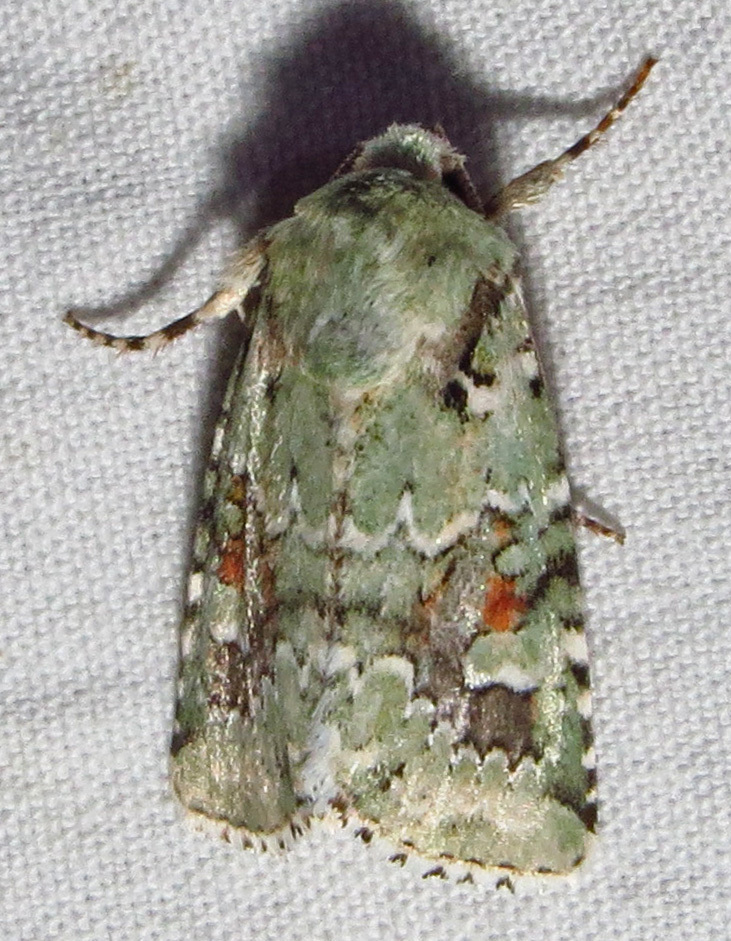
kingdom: Animalia
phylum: Arthropoda
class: Insecta
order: Lepidoptera
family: Noctuidae
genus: Lacinipolia
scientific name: Lacinipolia laudabilis
